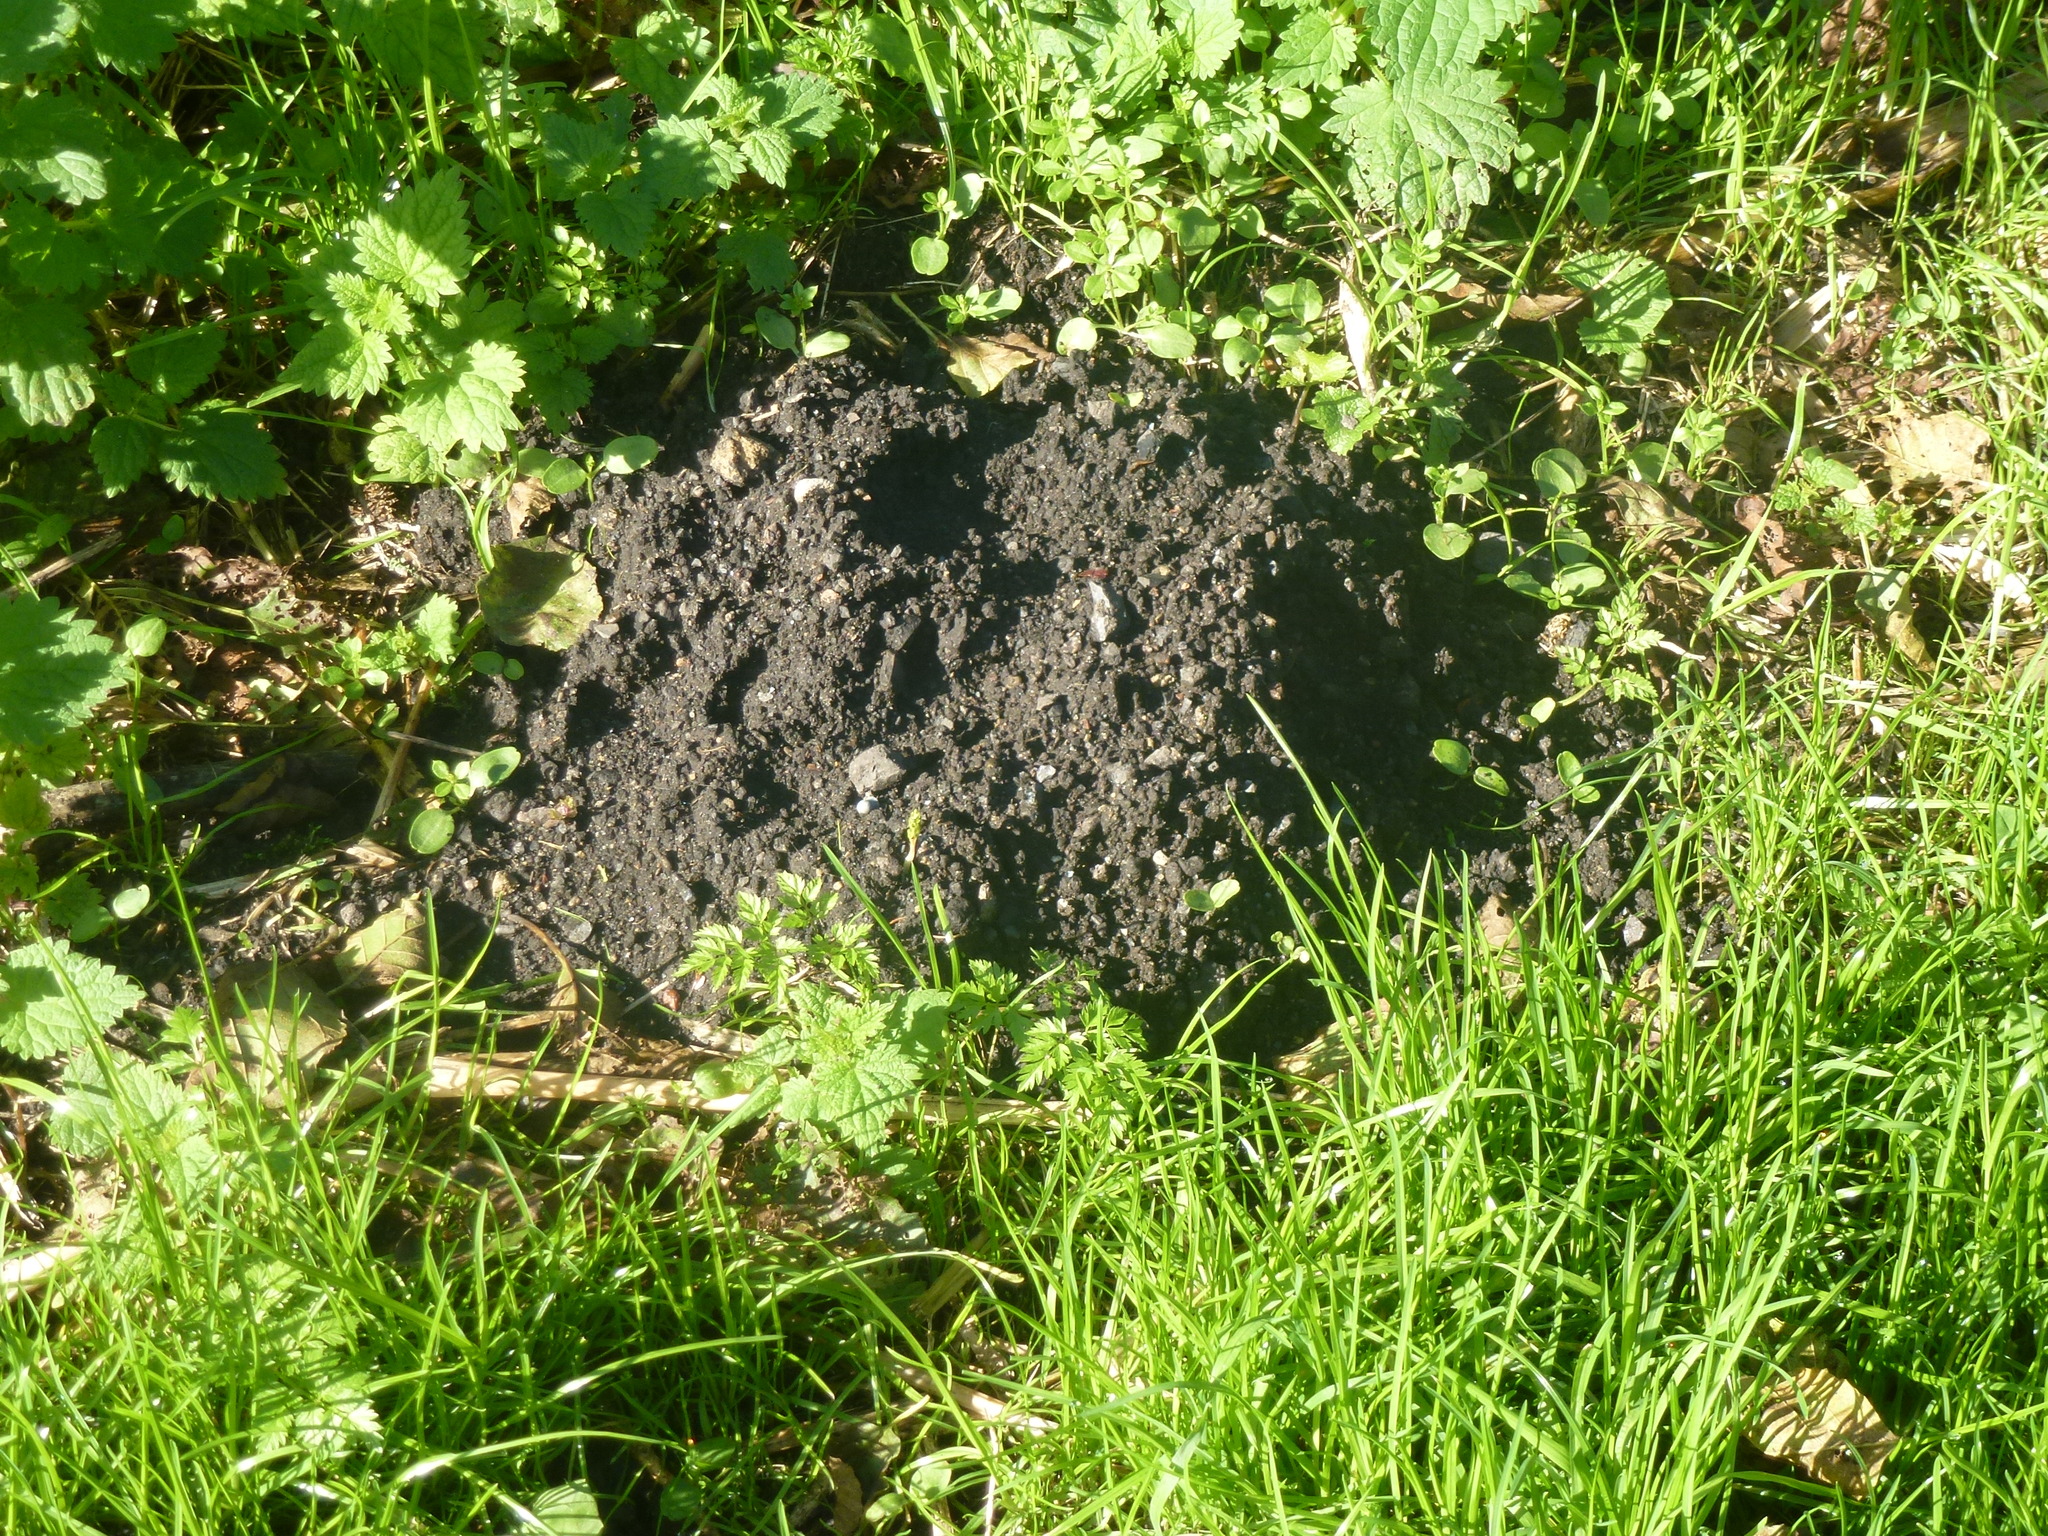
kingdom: Animalia
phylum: Chordata
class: Mammalia
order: Soricomorpha
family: Talpidae
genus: Talpa
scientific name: Talpa europaea
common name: European mole
